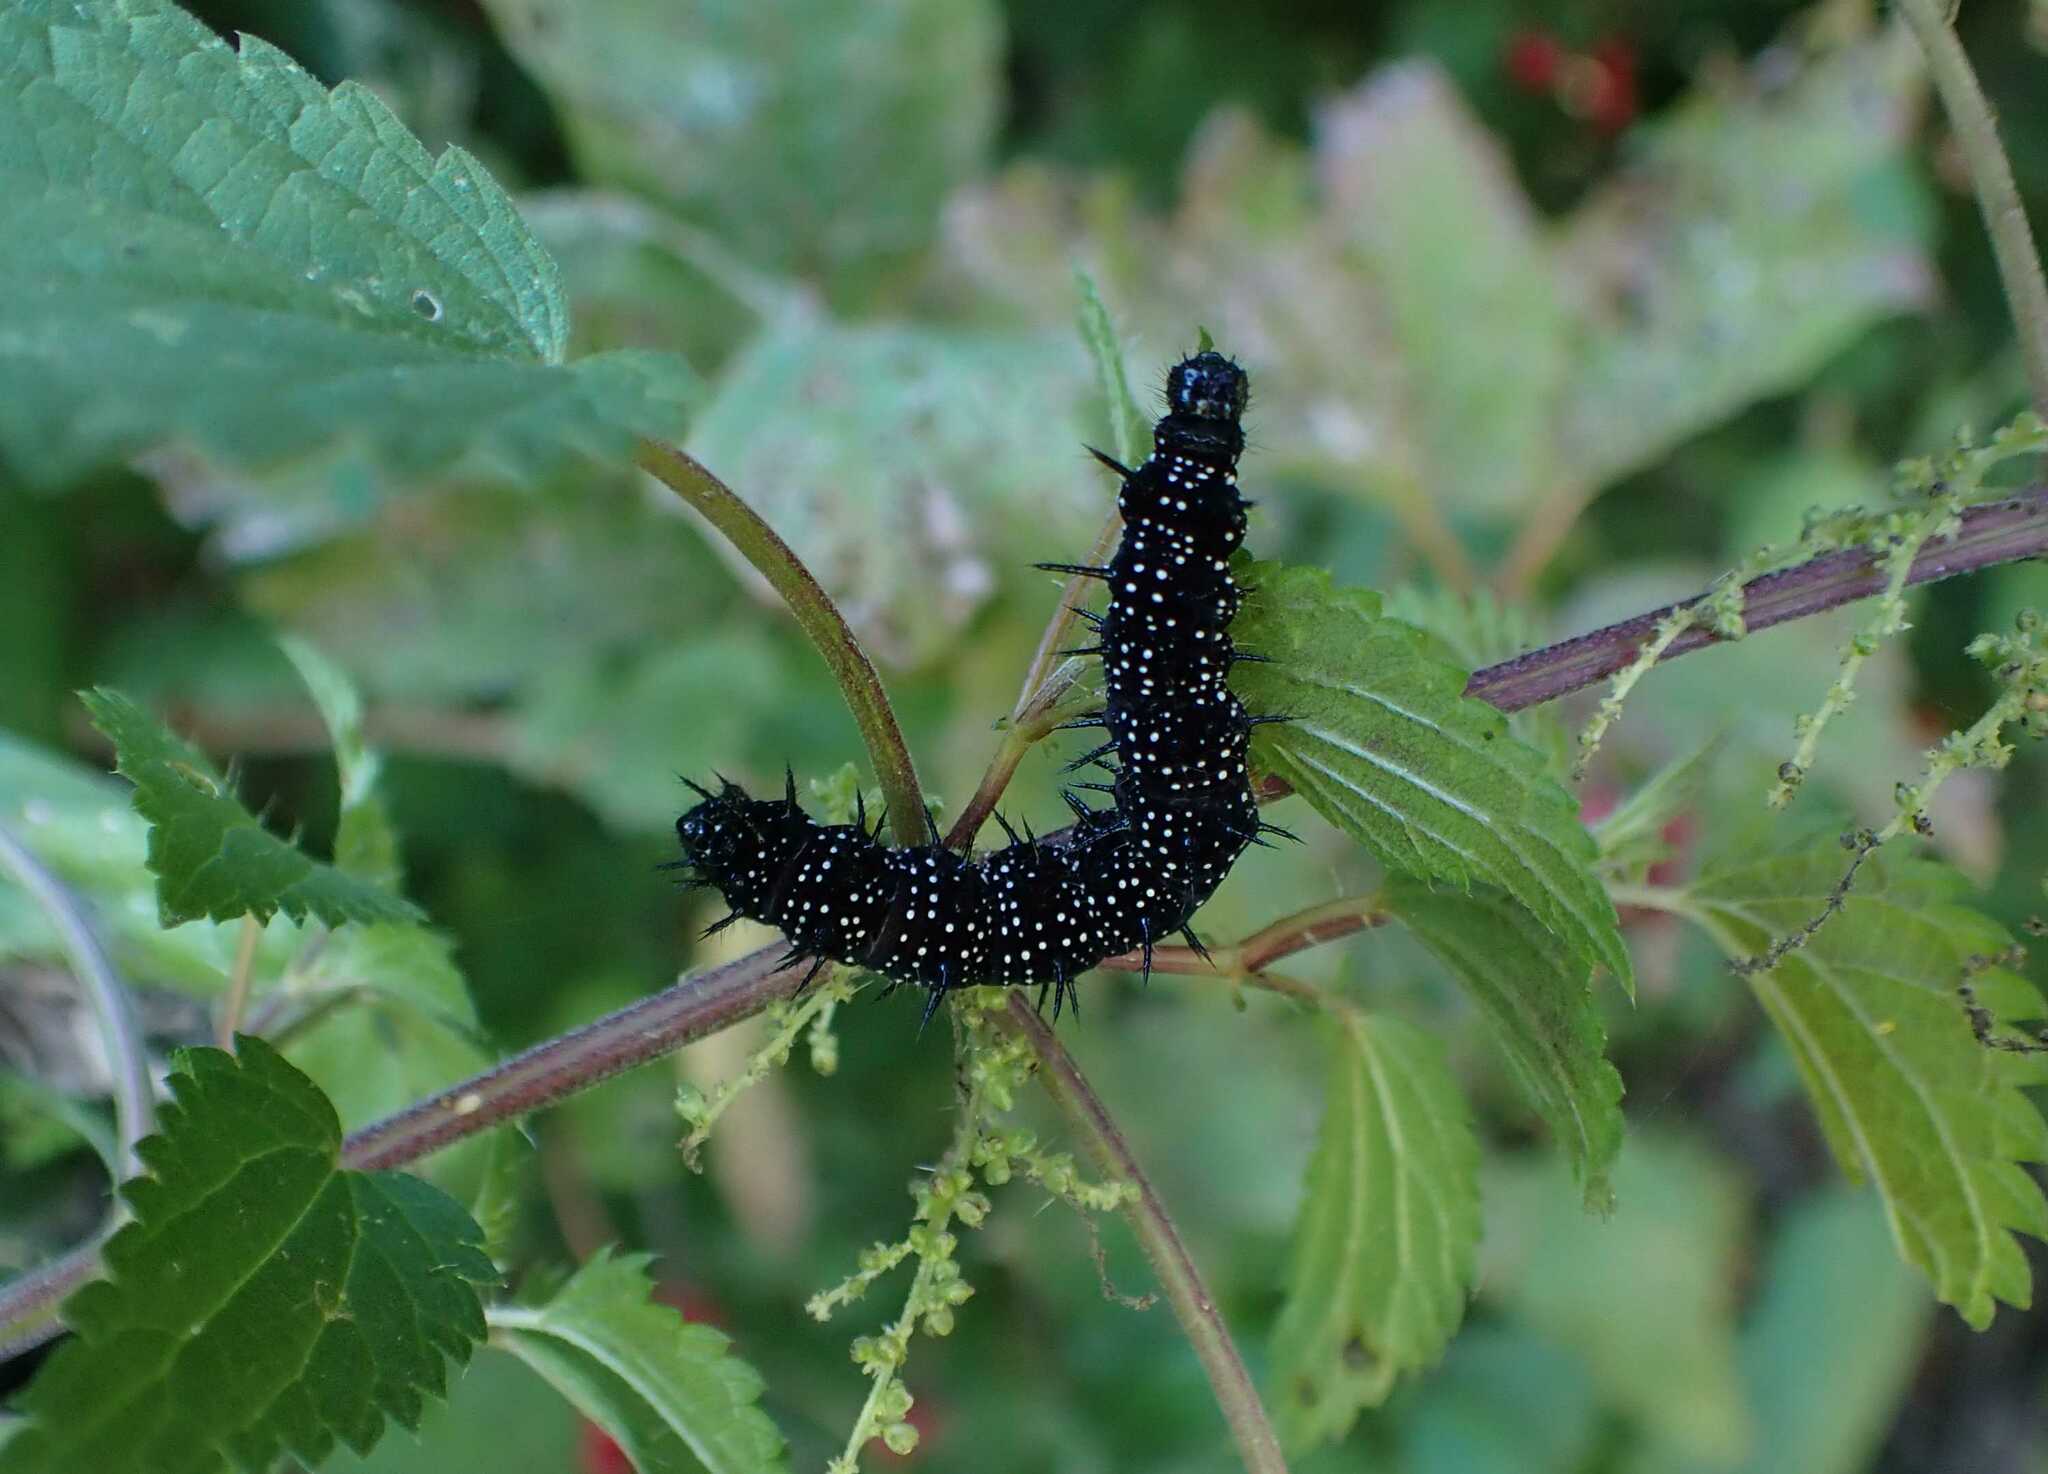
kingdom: Animalia
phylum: Arthropoda
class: Insecta
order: Lepidoptera
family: Nymphalidae
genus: Aglais
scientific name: Aglais io
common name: Peacock
